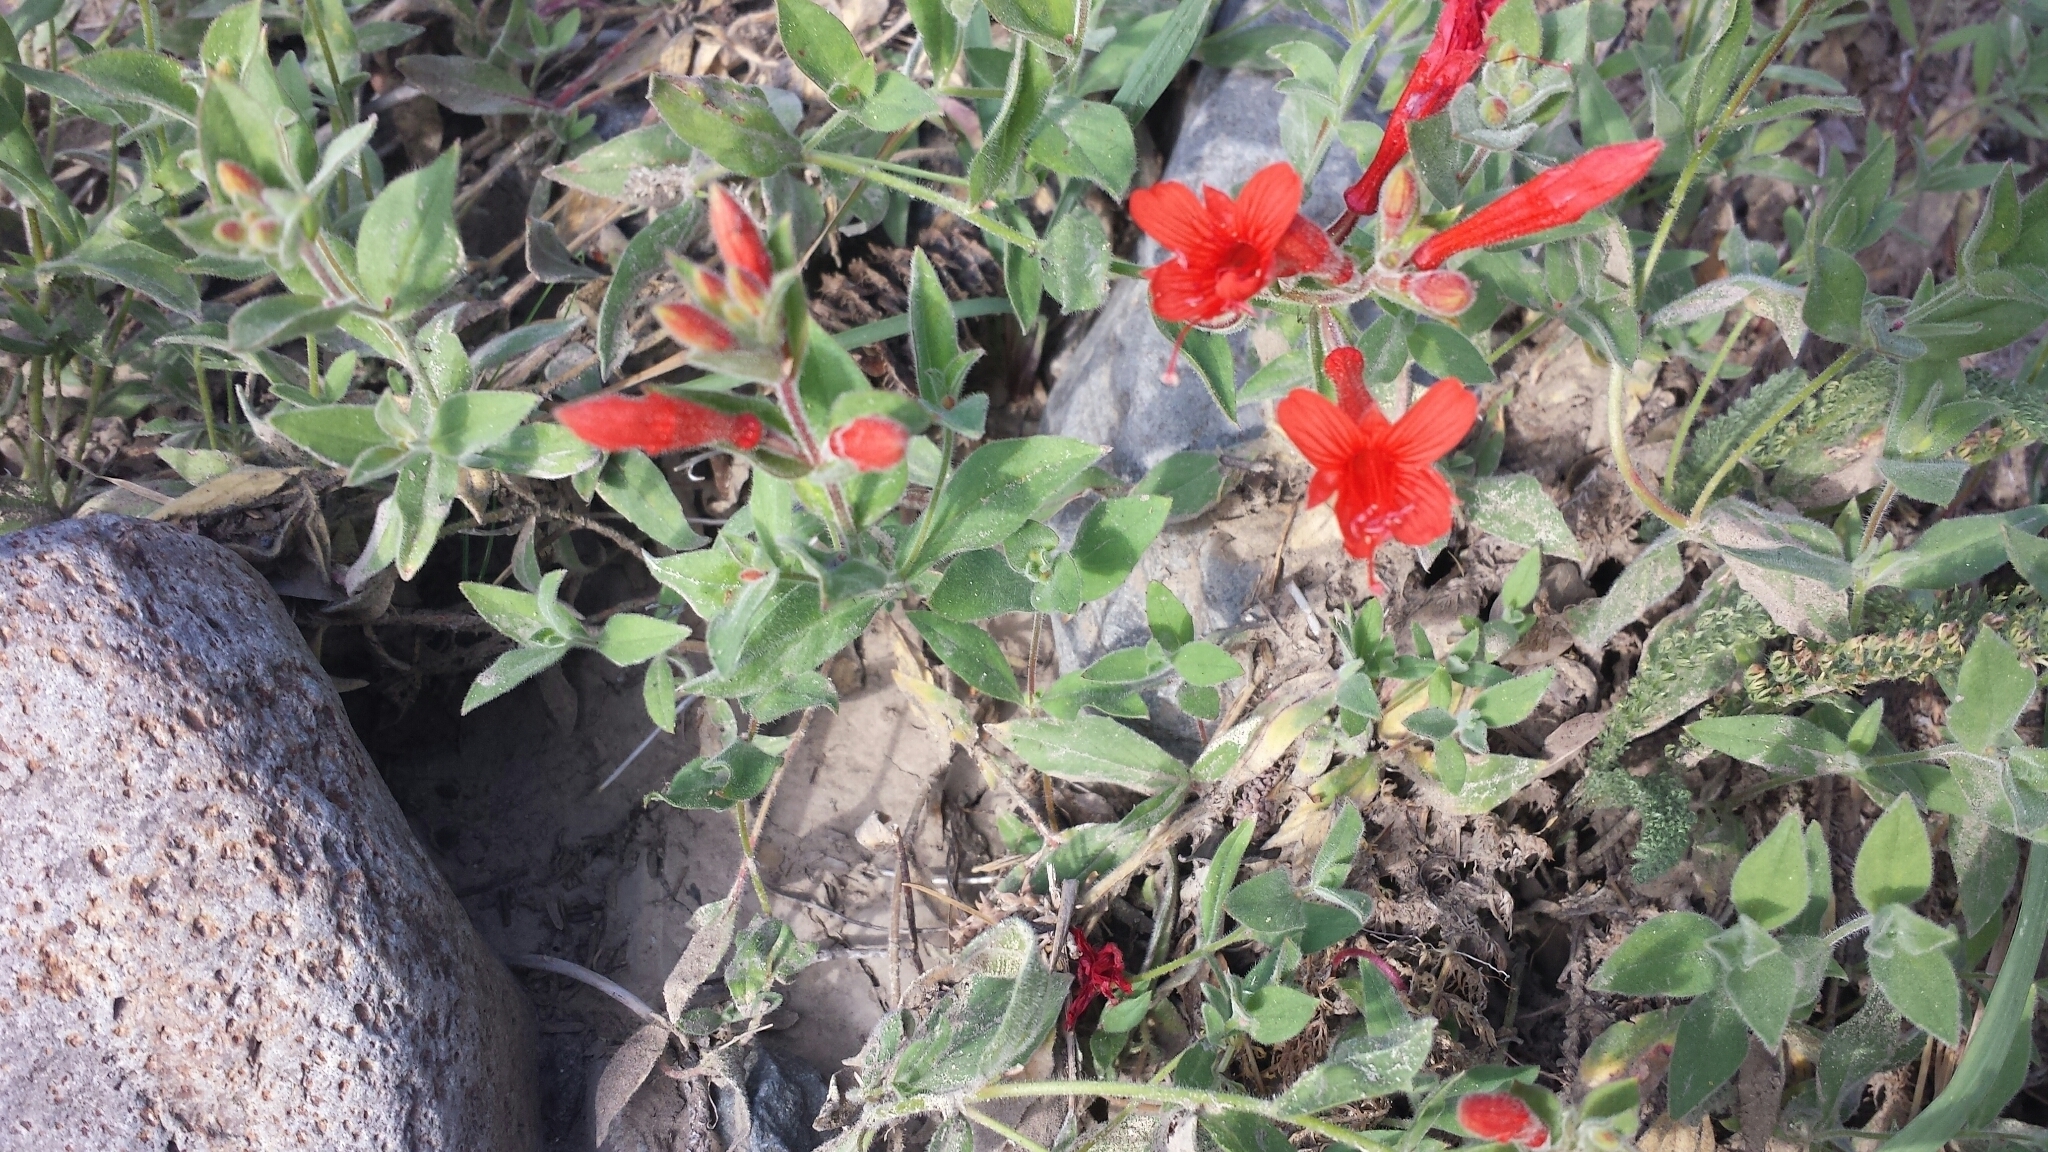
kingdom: Plantae
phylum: Tracheophyta
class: Magnoliopsida
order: Myrtales
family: Onagraceae
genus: Epilobium
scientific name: Epilobium canum
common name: California-fuchsia
